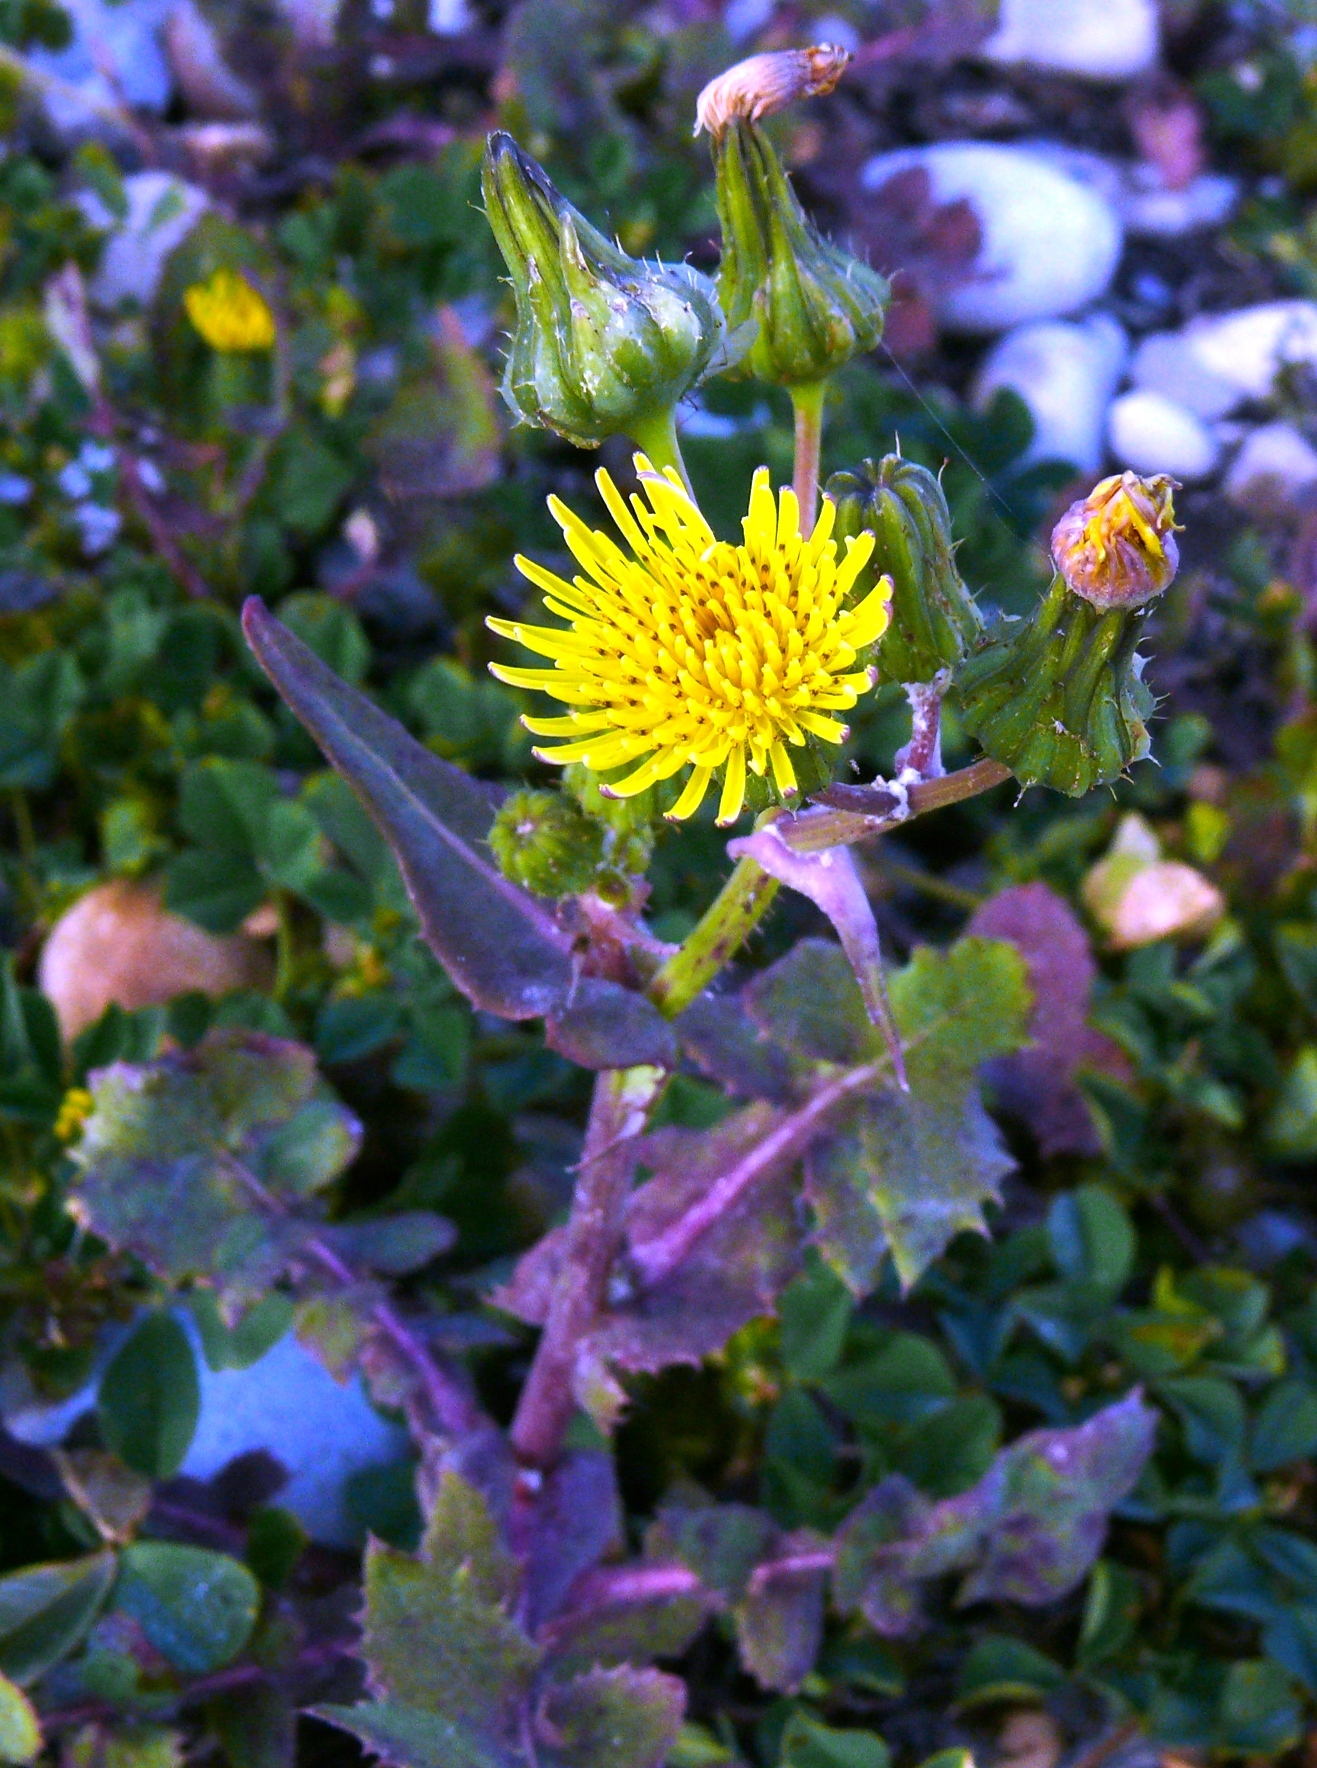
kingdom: Plantae
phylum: Tracheophyta
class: Magnoliopsida
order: Asterales
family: Asteraceae
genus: Sonchus
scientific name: Sonchus oleraceus
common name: Common sowthistle
